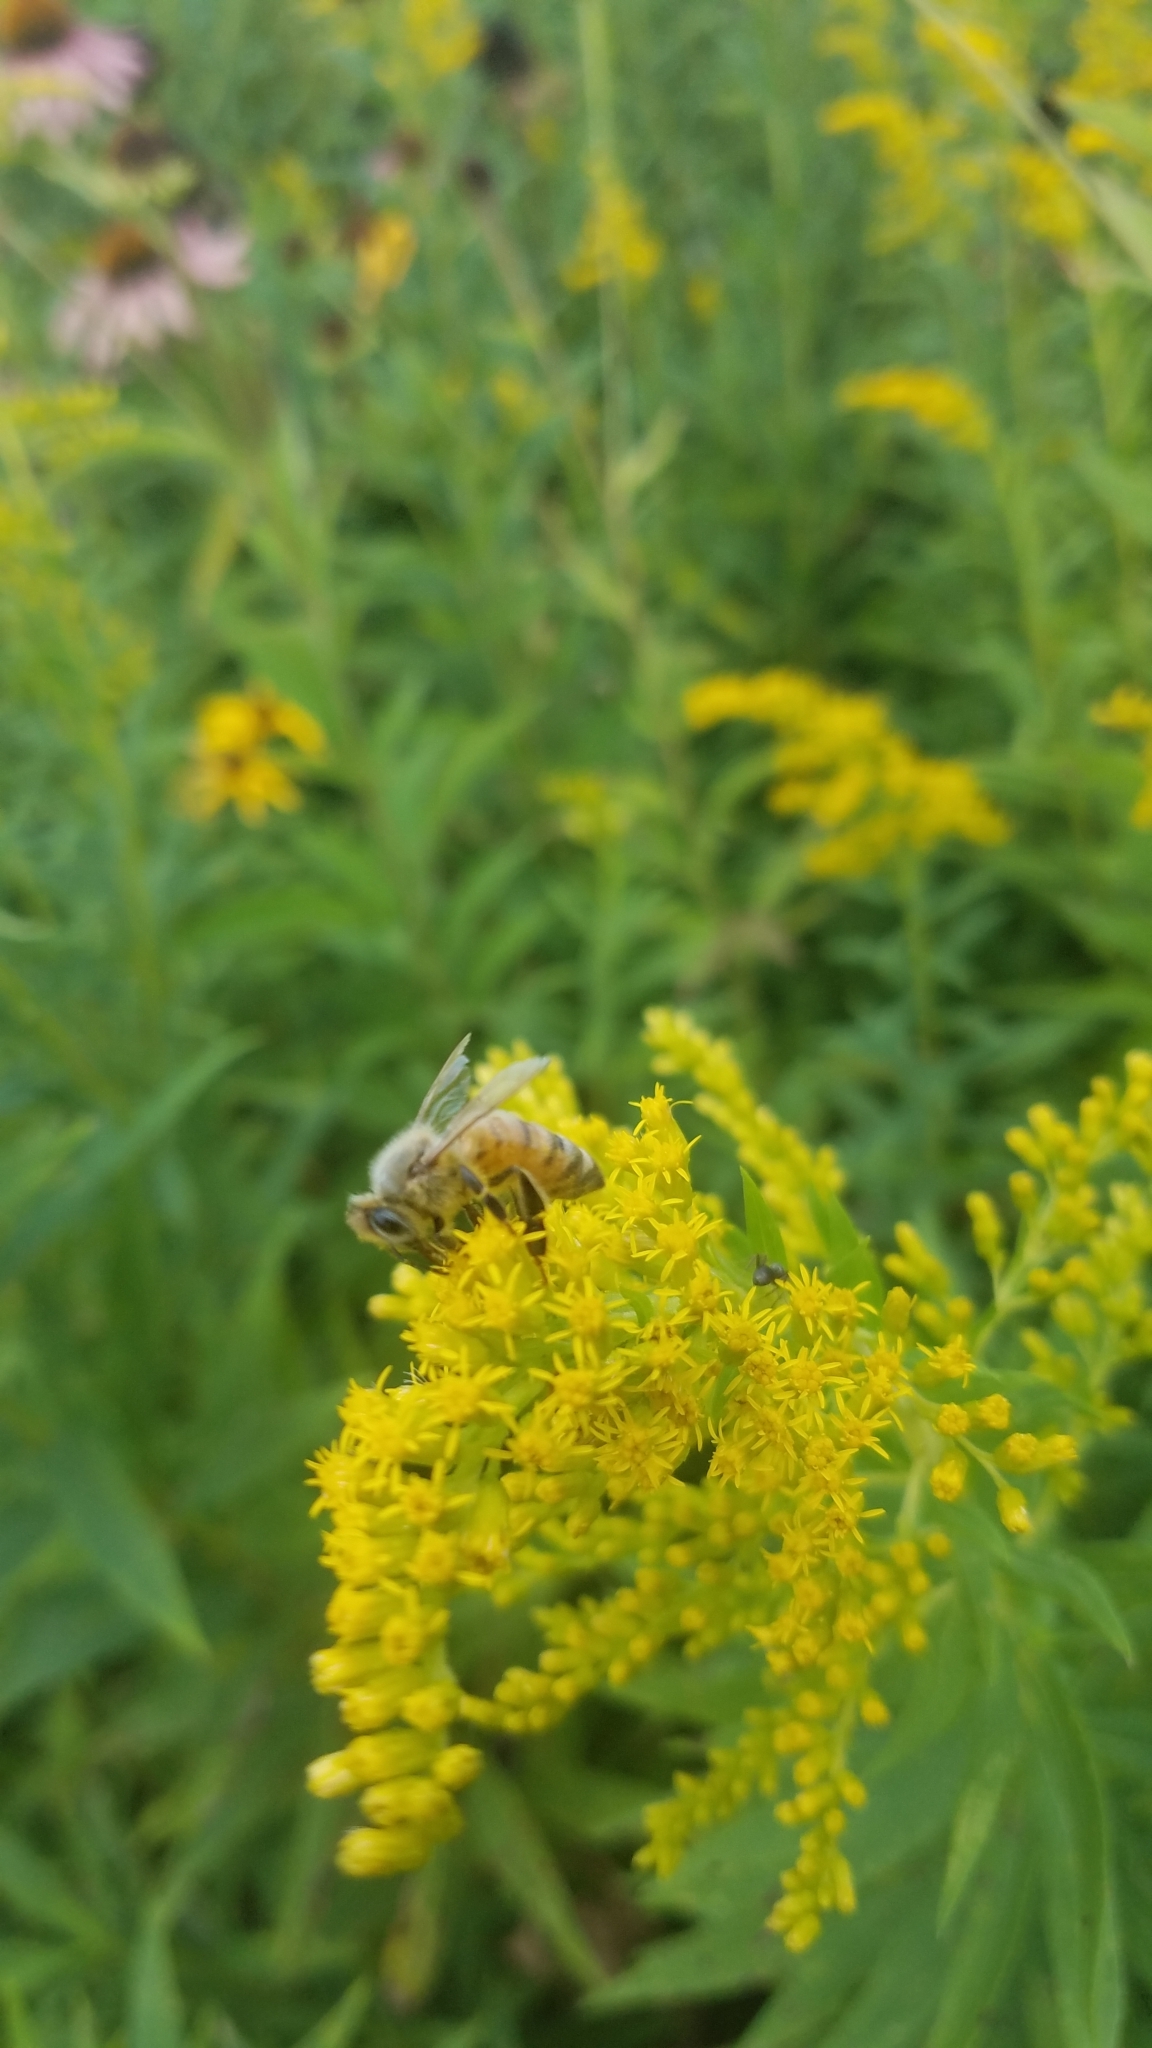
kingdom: Animalia
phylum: Arthropoda
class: Insecta
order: Hymenoptera
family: Apidae
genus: Apis
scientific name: Apis mellifera
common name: Honey bee
